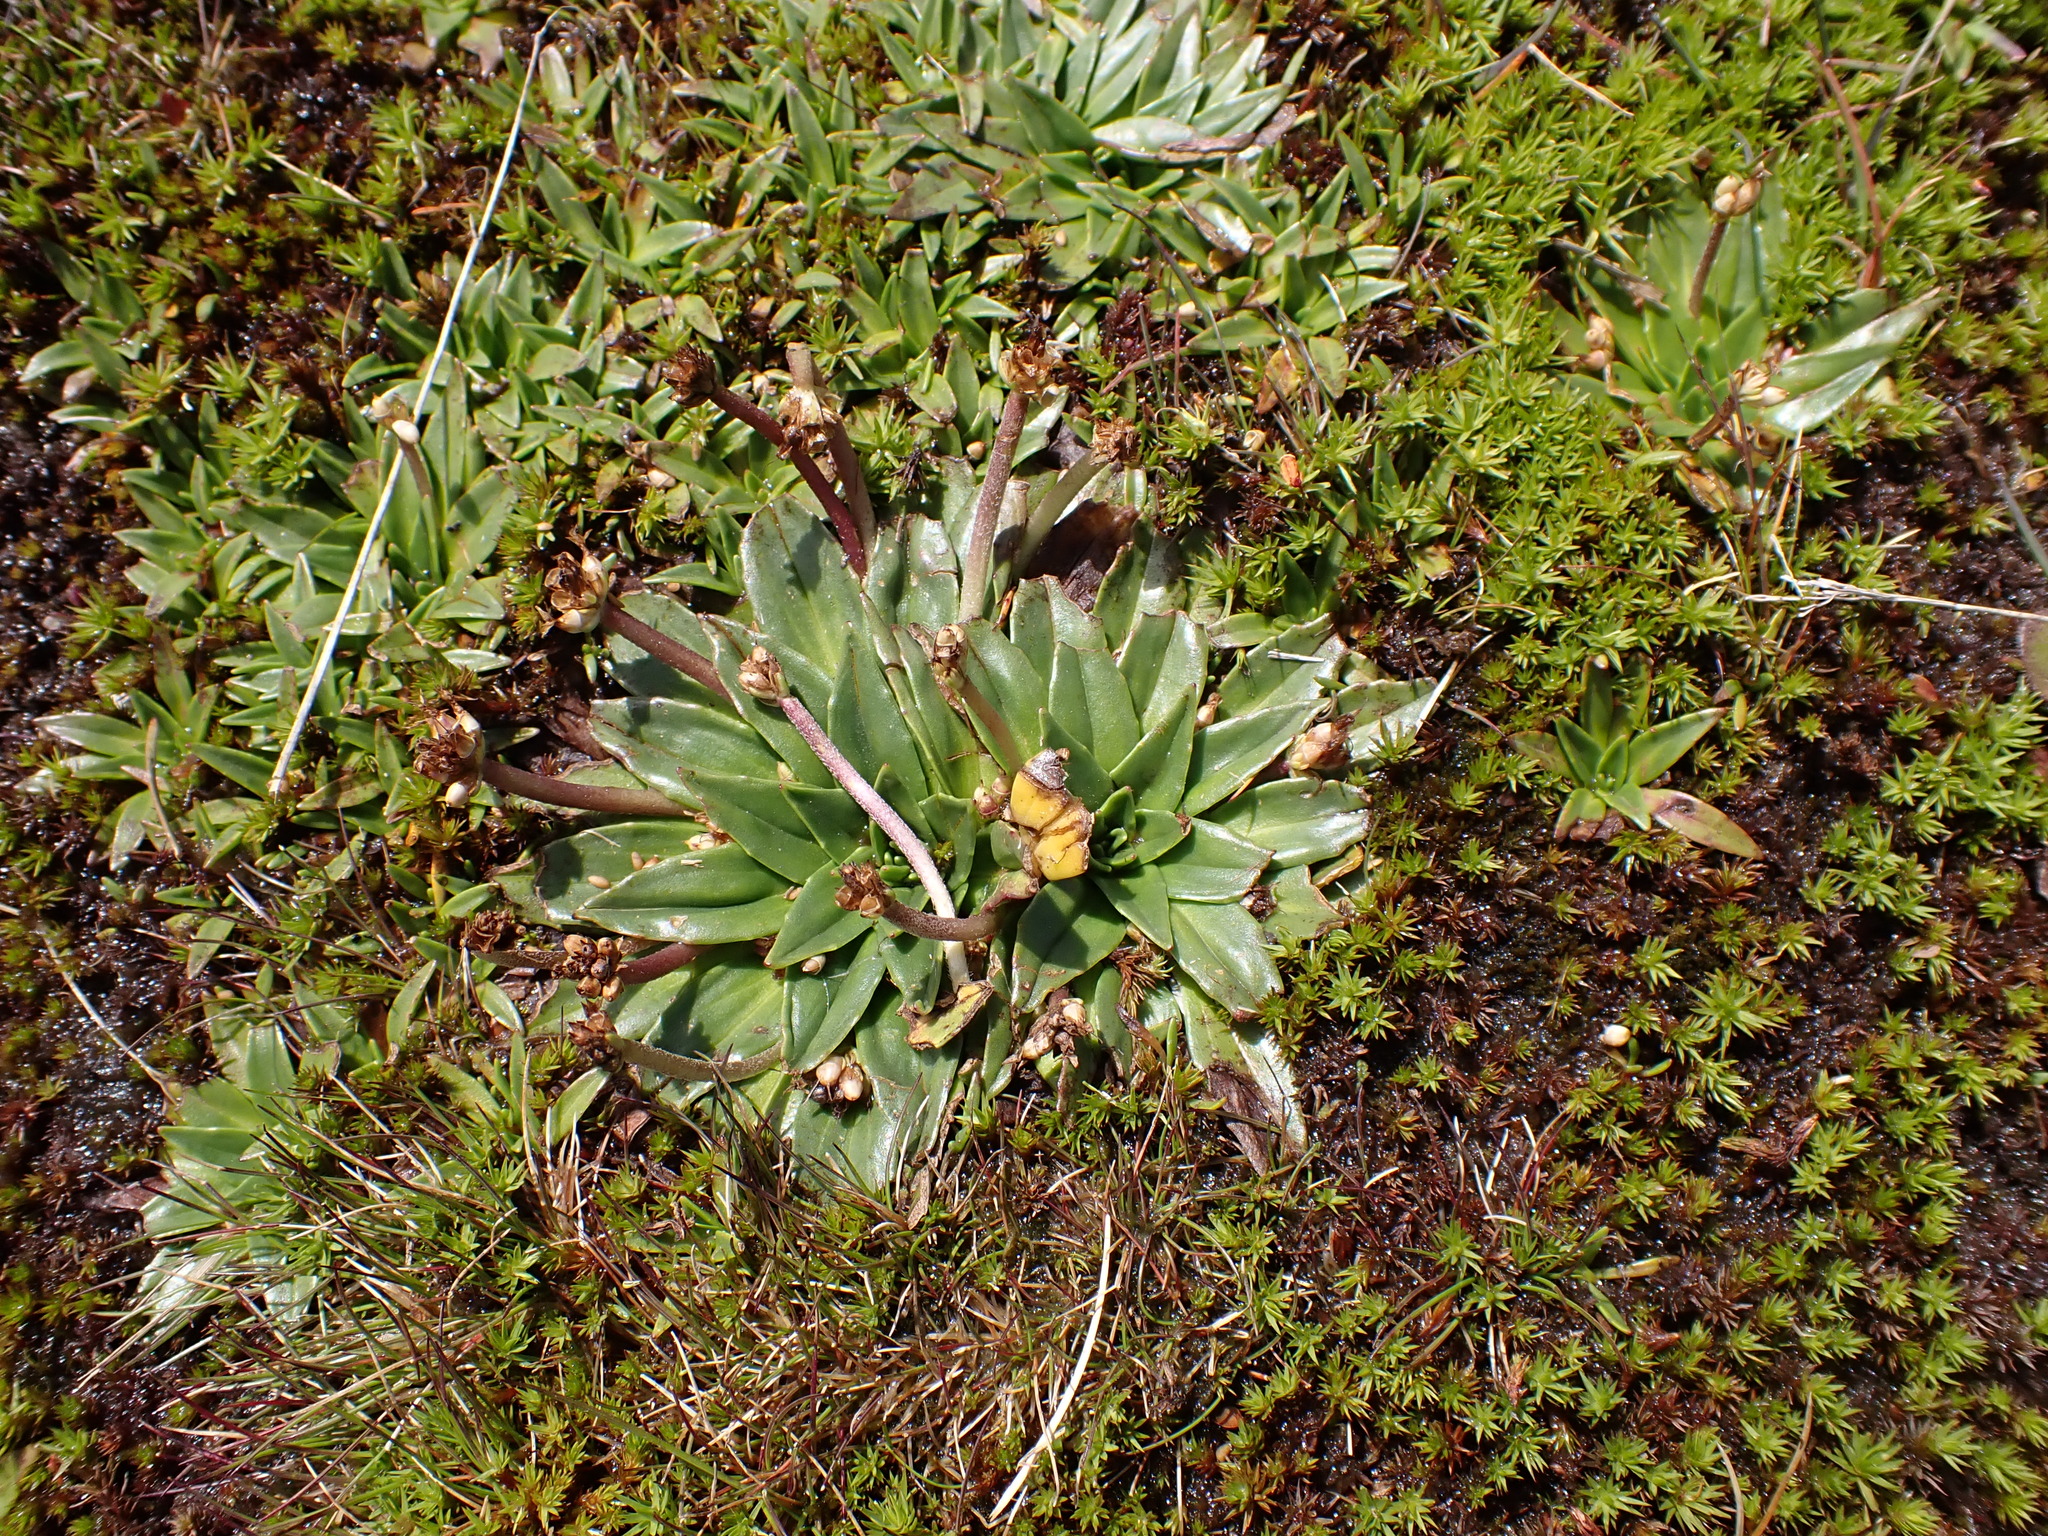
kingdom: Plantae
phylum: Tracheophyta
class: Magnoliopsida
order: Lamiales
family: Plantaginaceae
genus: Plantago
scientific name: Plantago muelleri
